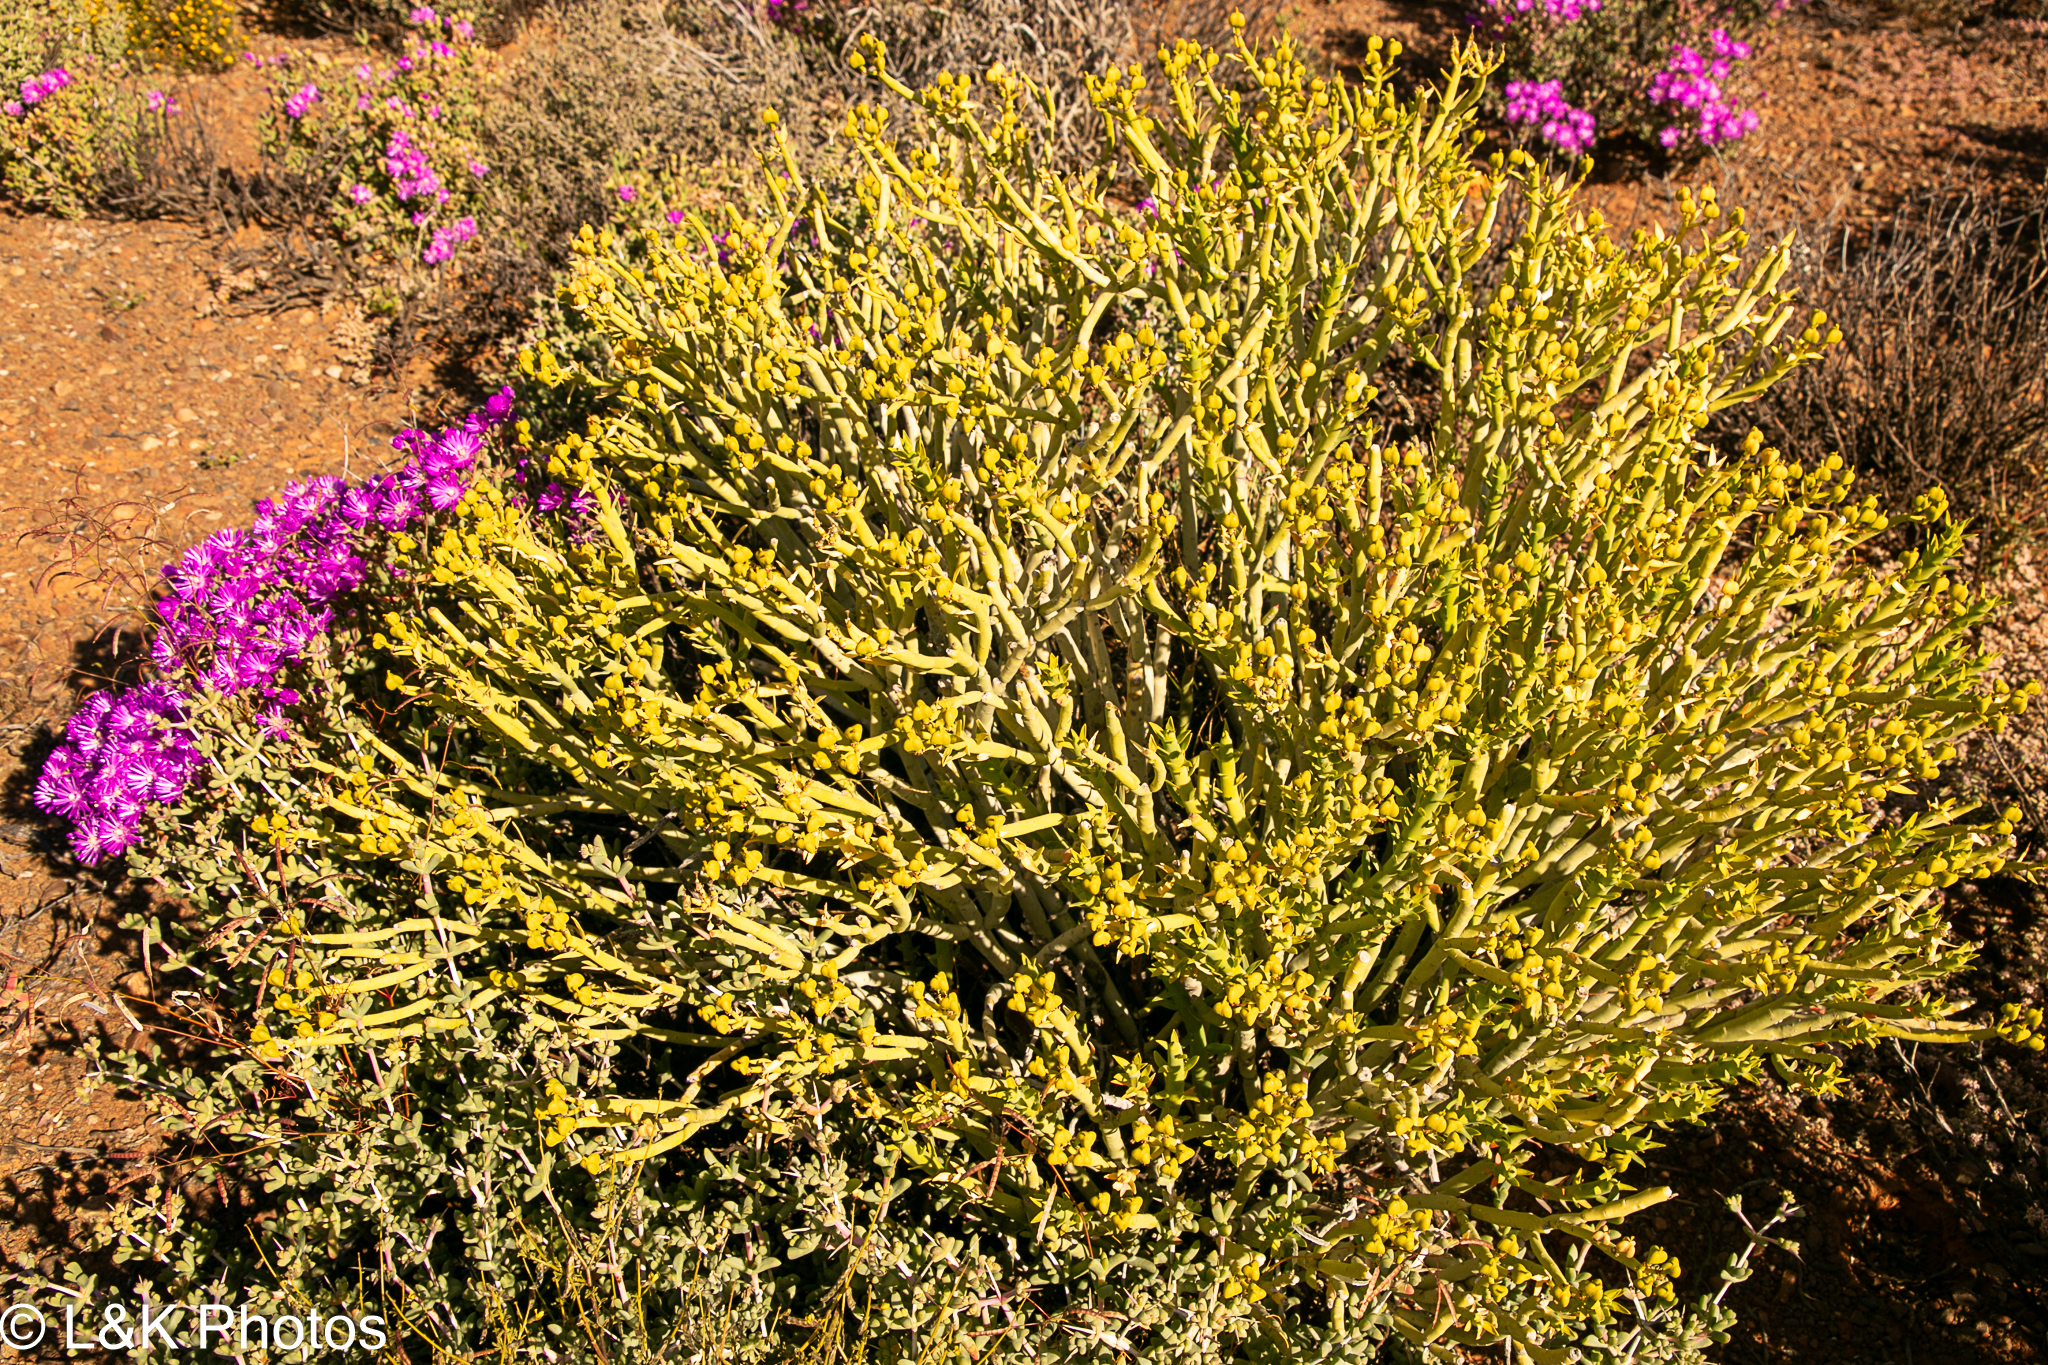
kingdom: Plantae
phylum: Tracheophyta
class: Magnoliopsida
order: Malpighiales
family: Euphorbiaceae
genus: Euphorbia
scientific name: Euphorbia mauritanica
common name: Jackal's-food
